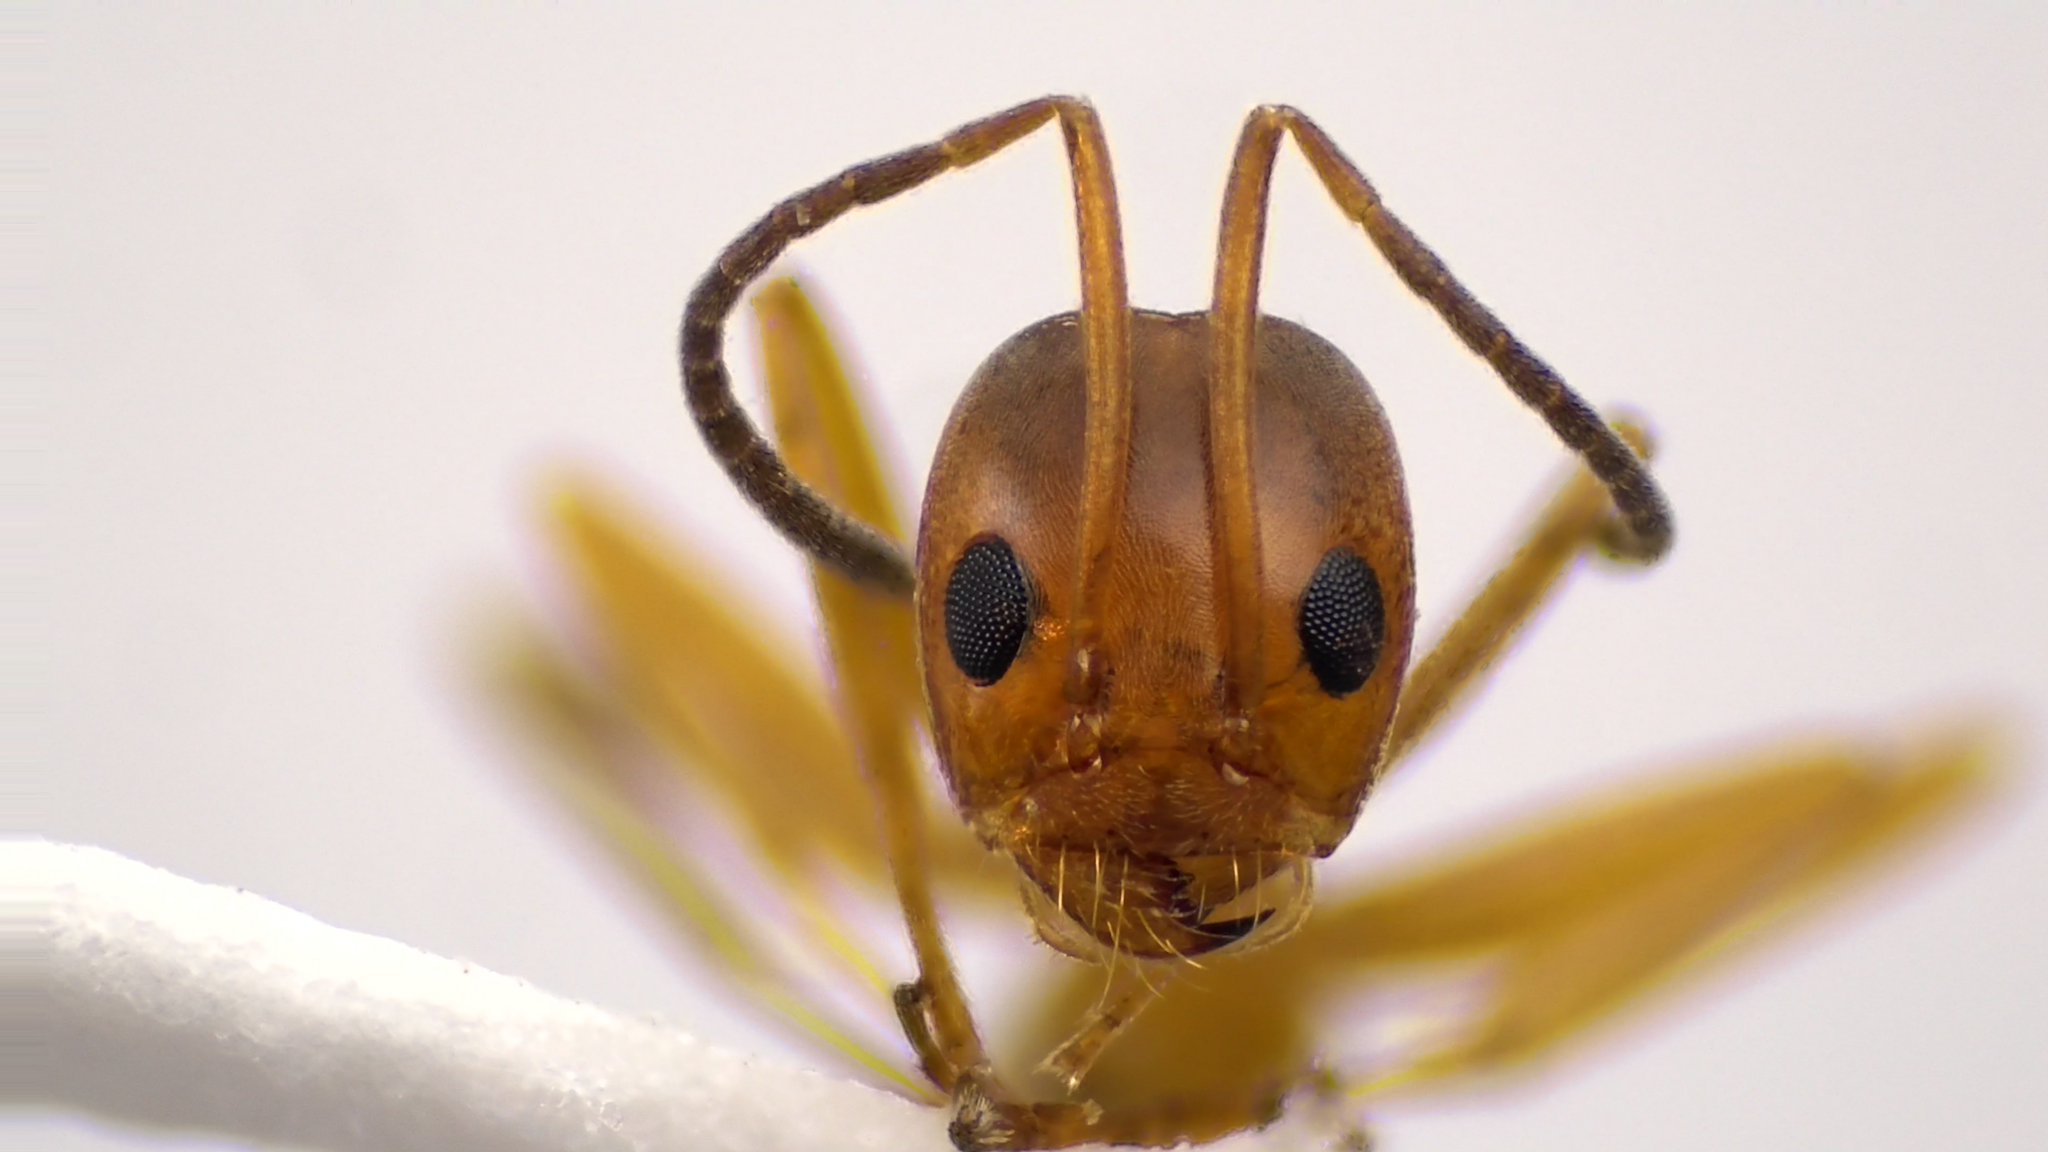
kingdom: Animalia
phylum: Arthropoda
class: Insecta
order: Hymenoptera
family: Formicidae
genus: Dorymyrmex
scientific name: Dorymyrmex bureni
